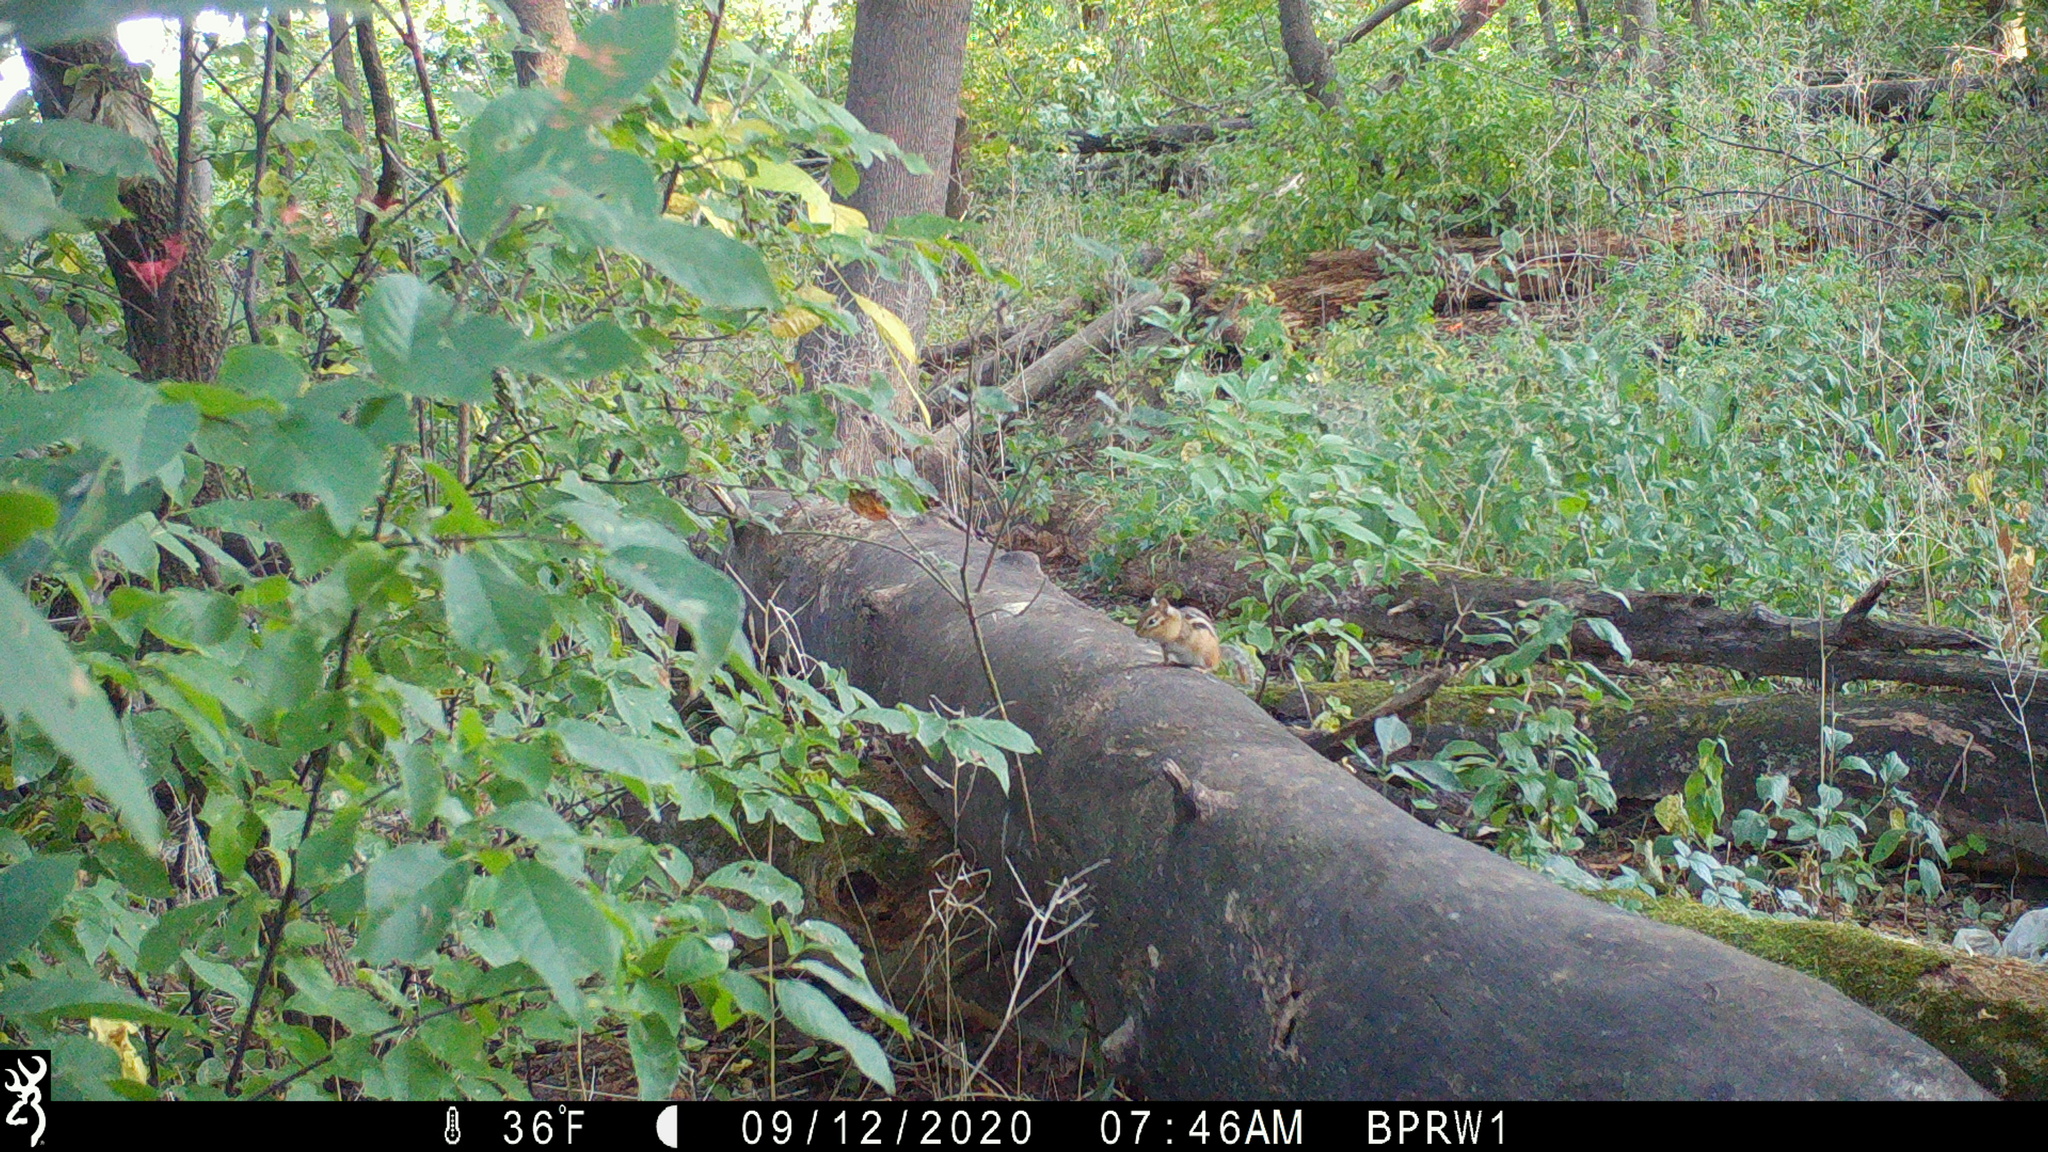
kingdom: Animalia
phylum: Chordata
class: Mammalia
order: Rodentia
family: Sciuridae
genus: Tamias
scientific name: Tamias striatus
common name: Eastern chipmunk
